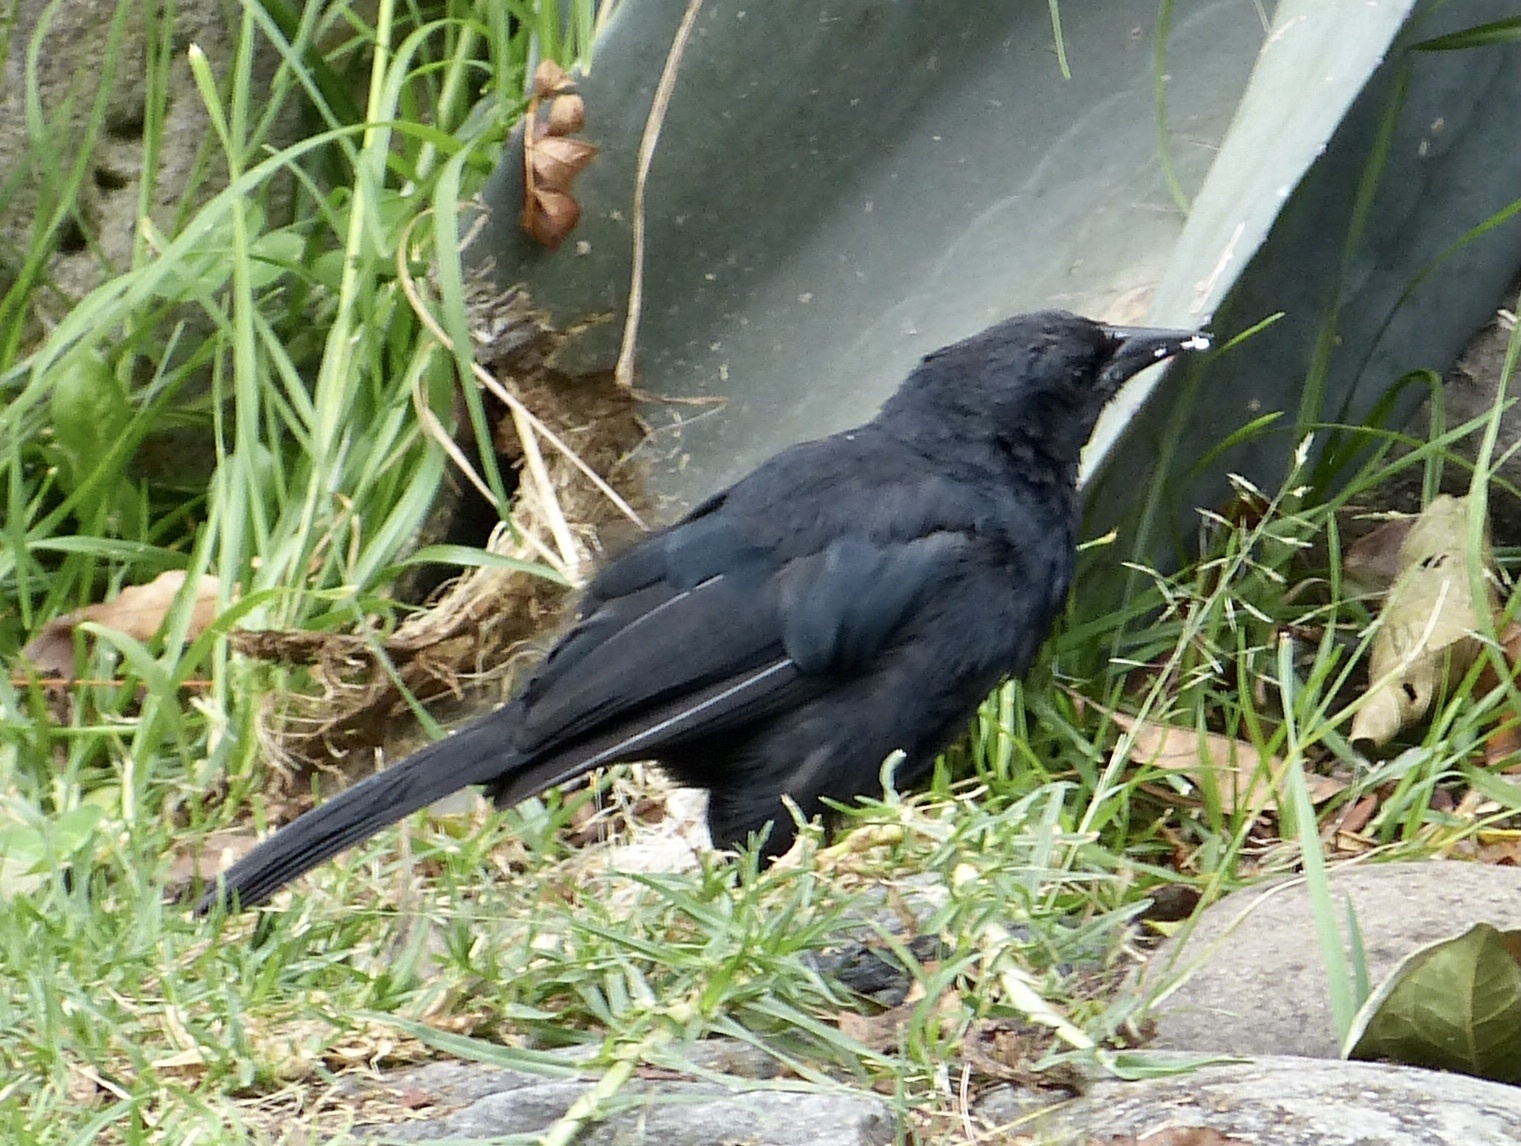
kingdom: Animalia
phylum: Chordata
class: Aves
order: Passeriformes
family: Icteridae
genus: Dives
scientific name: Dives warczewiczi
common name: Scrub blackbird
